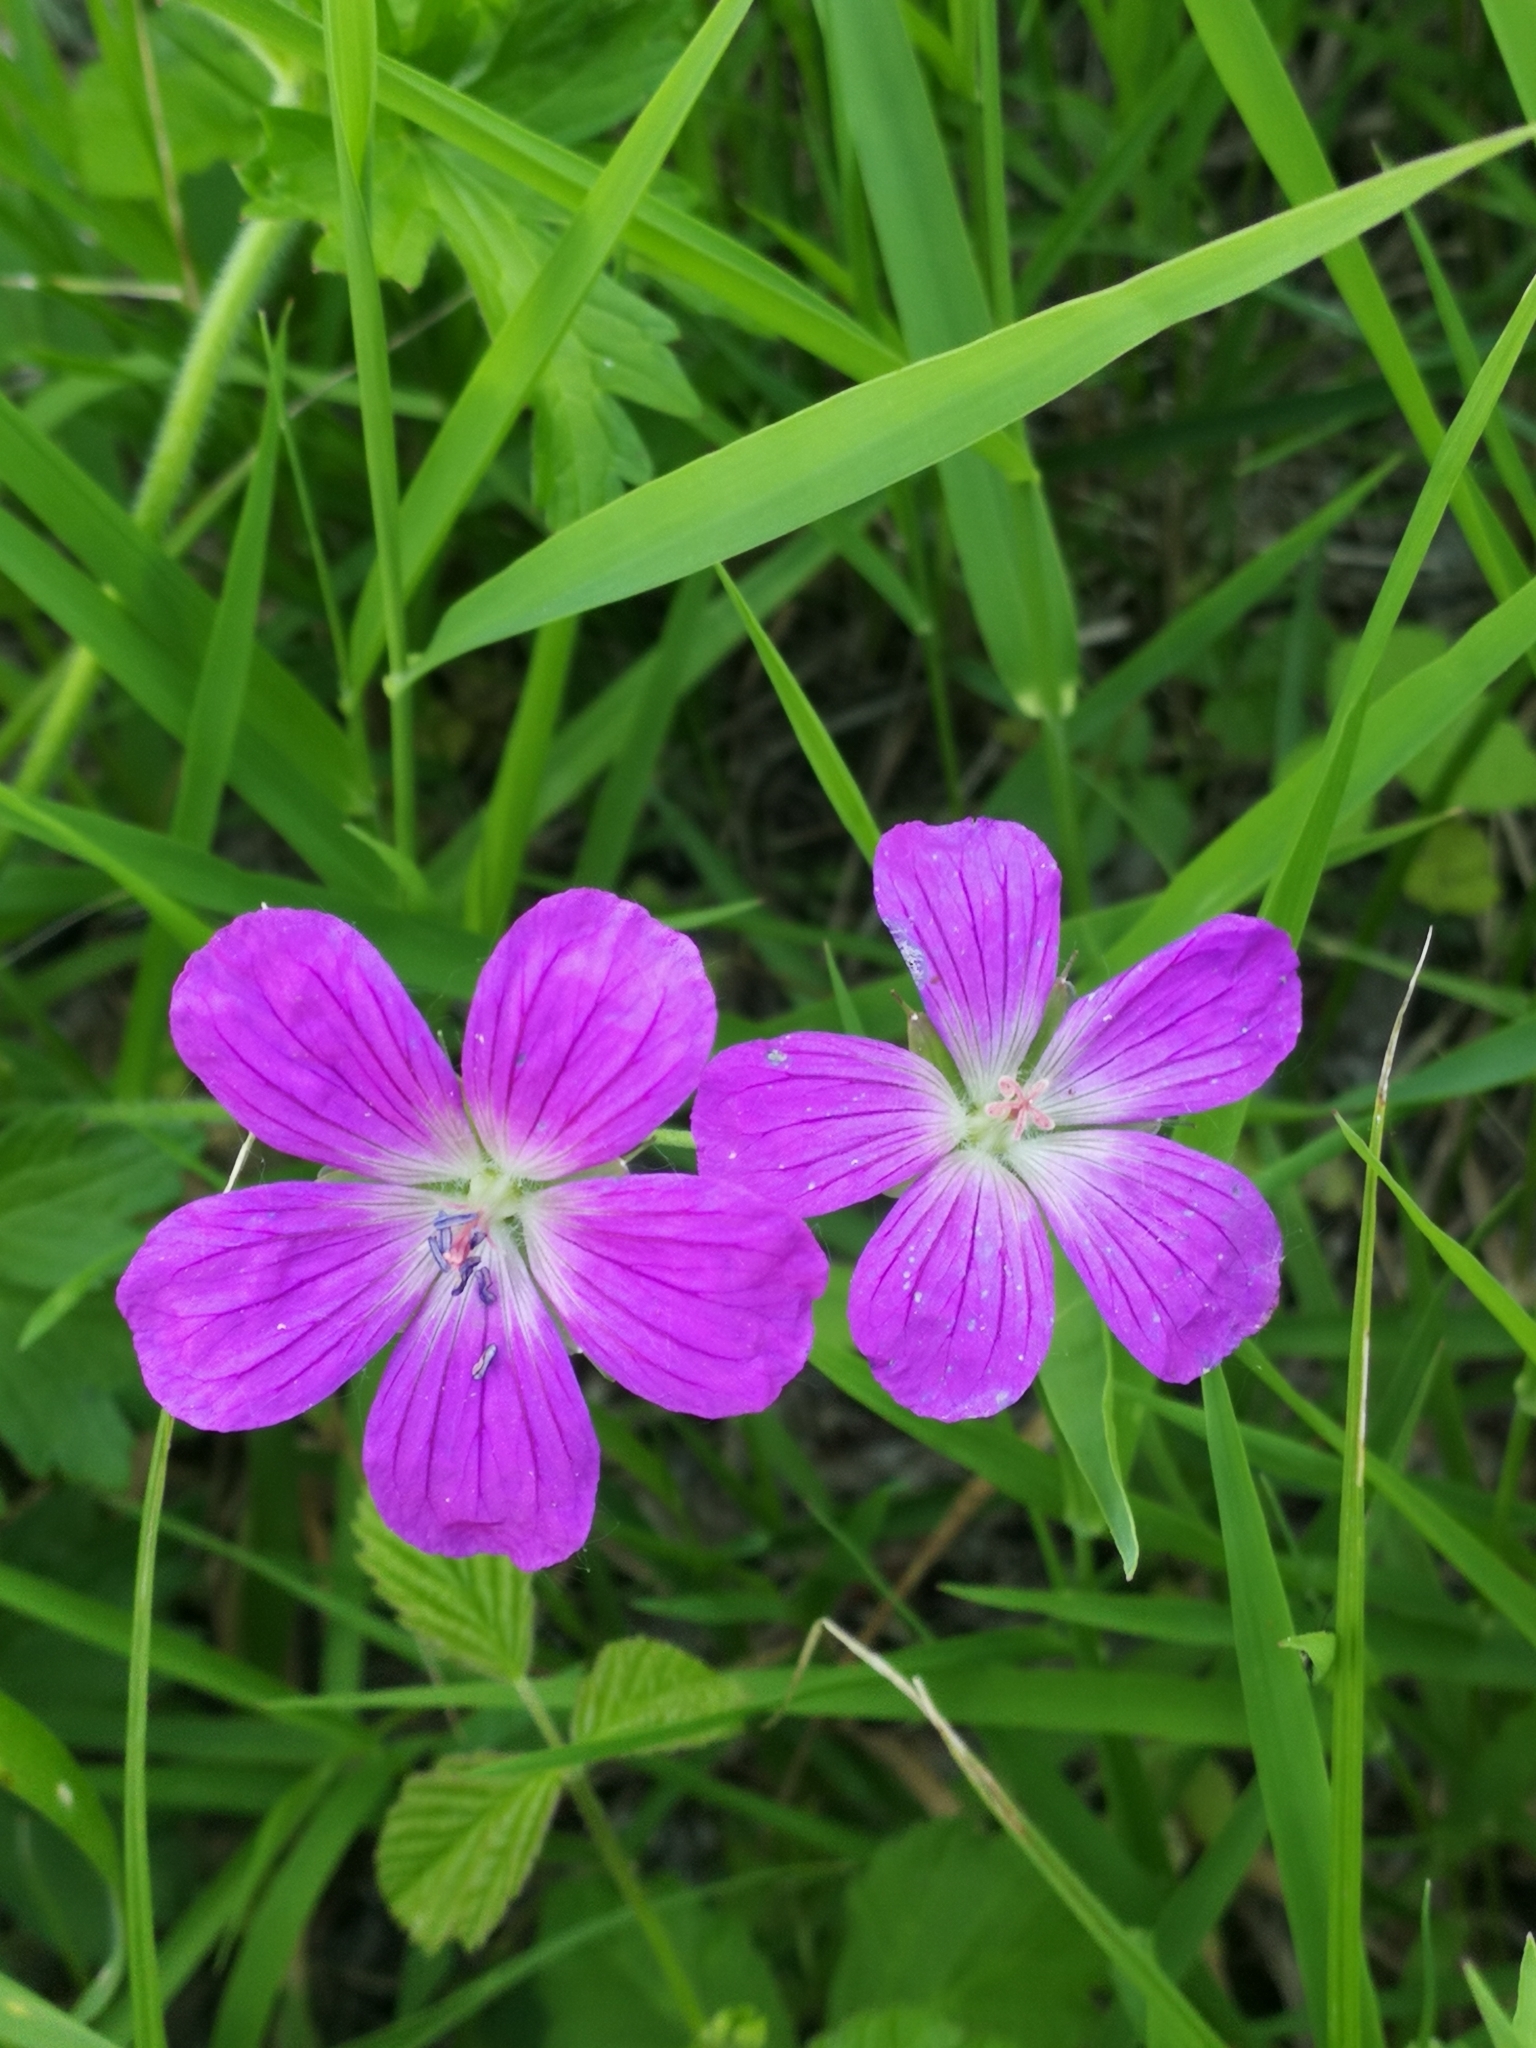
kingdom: Plantae
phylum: Tracheophyta
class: Magnoliopsida
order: Geraniales
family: Geraniaceae
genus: Geranium
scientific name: Geranium palustre
